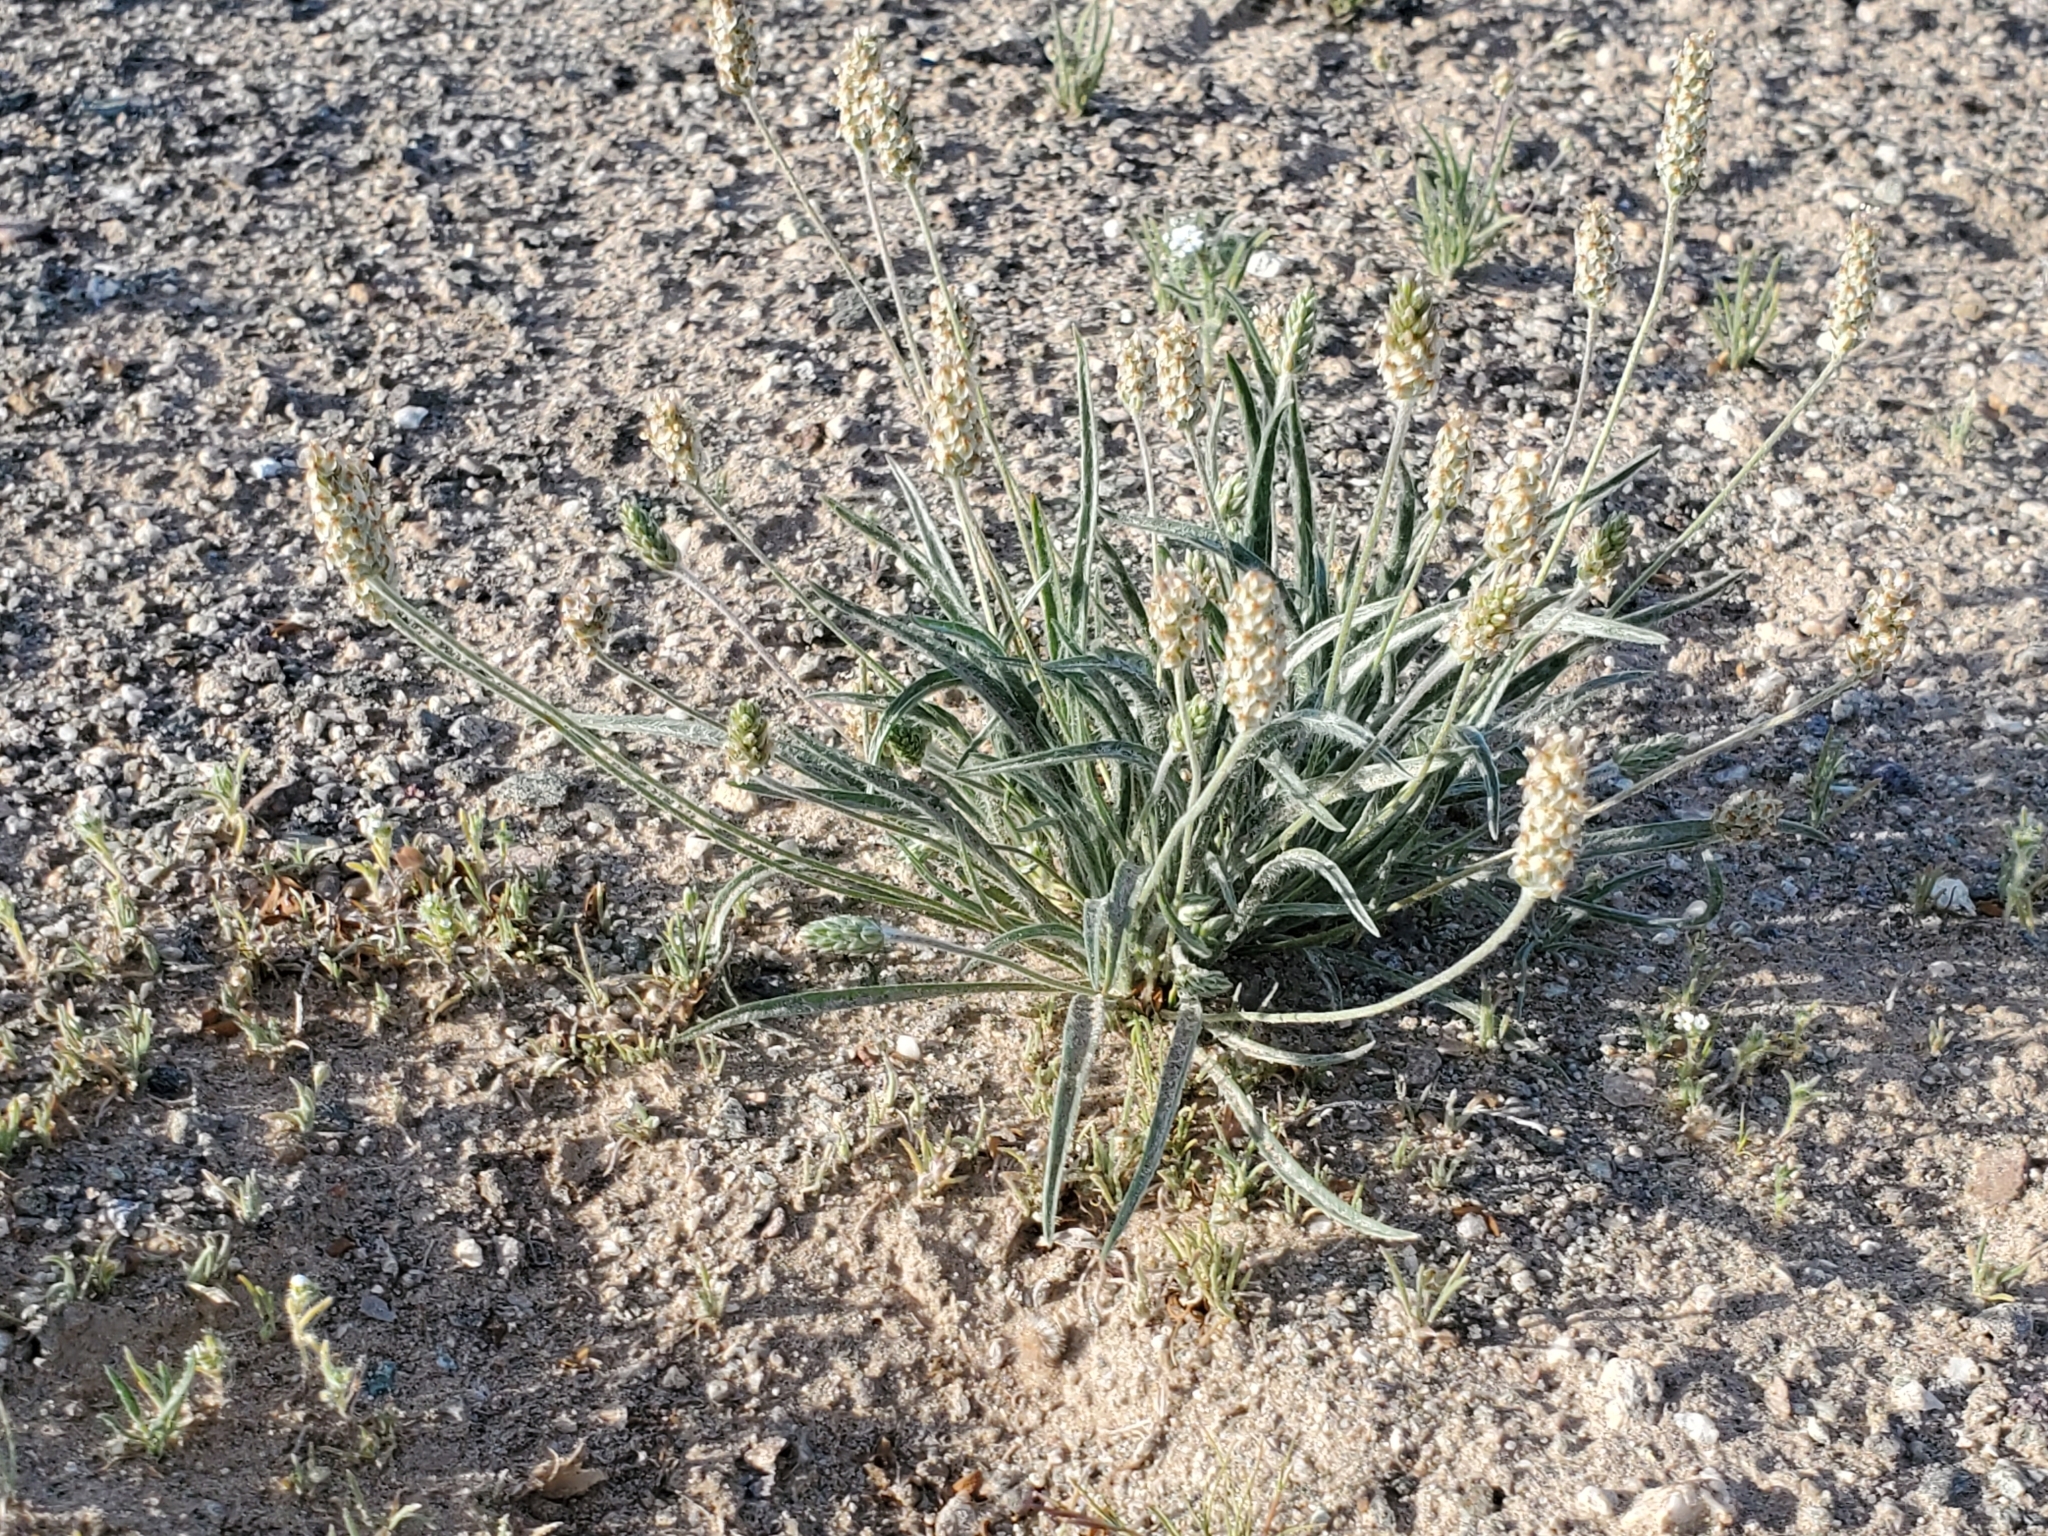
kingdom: Plantae
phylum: Tracheophyta
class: Magnoliopsida
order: Lamiales
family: Plantaginaceae
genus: Plantago
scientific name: Plantago ovata
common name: Blond plantain
